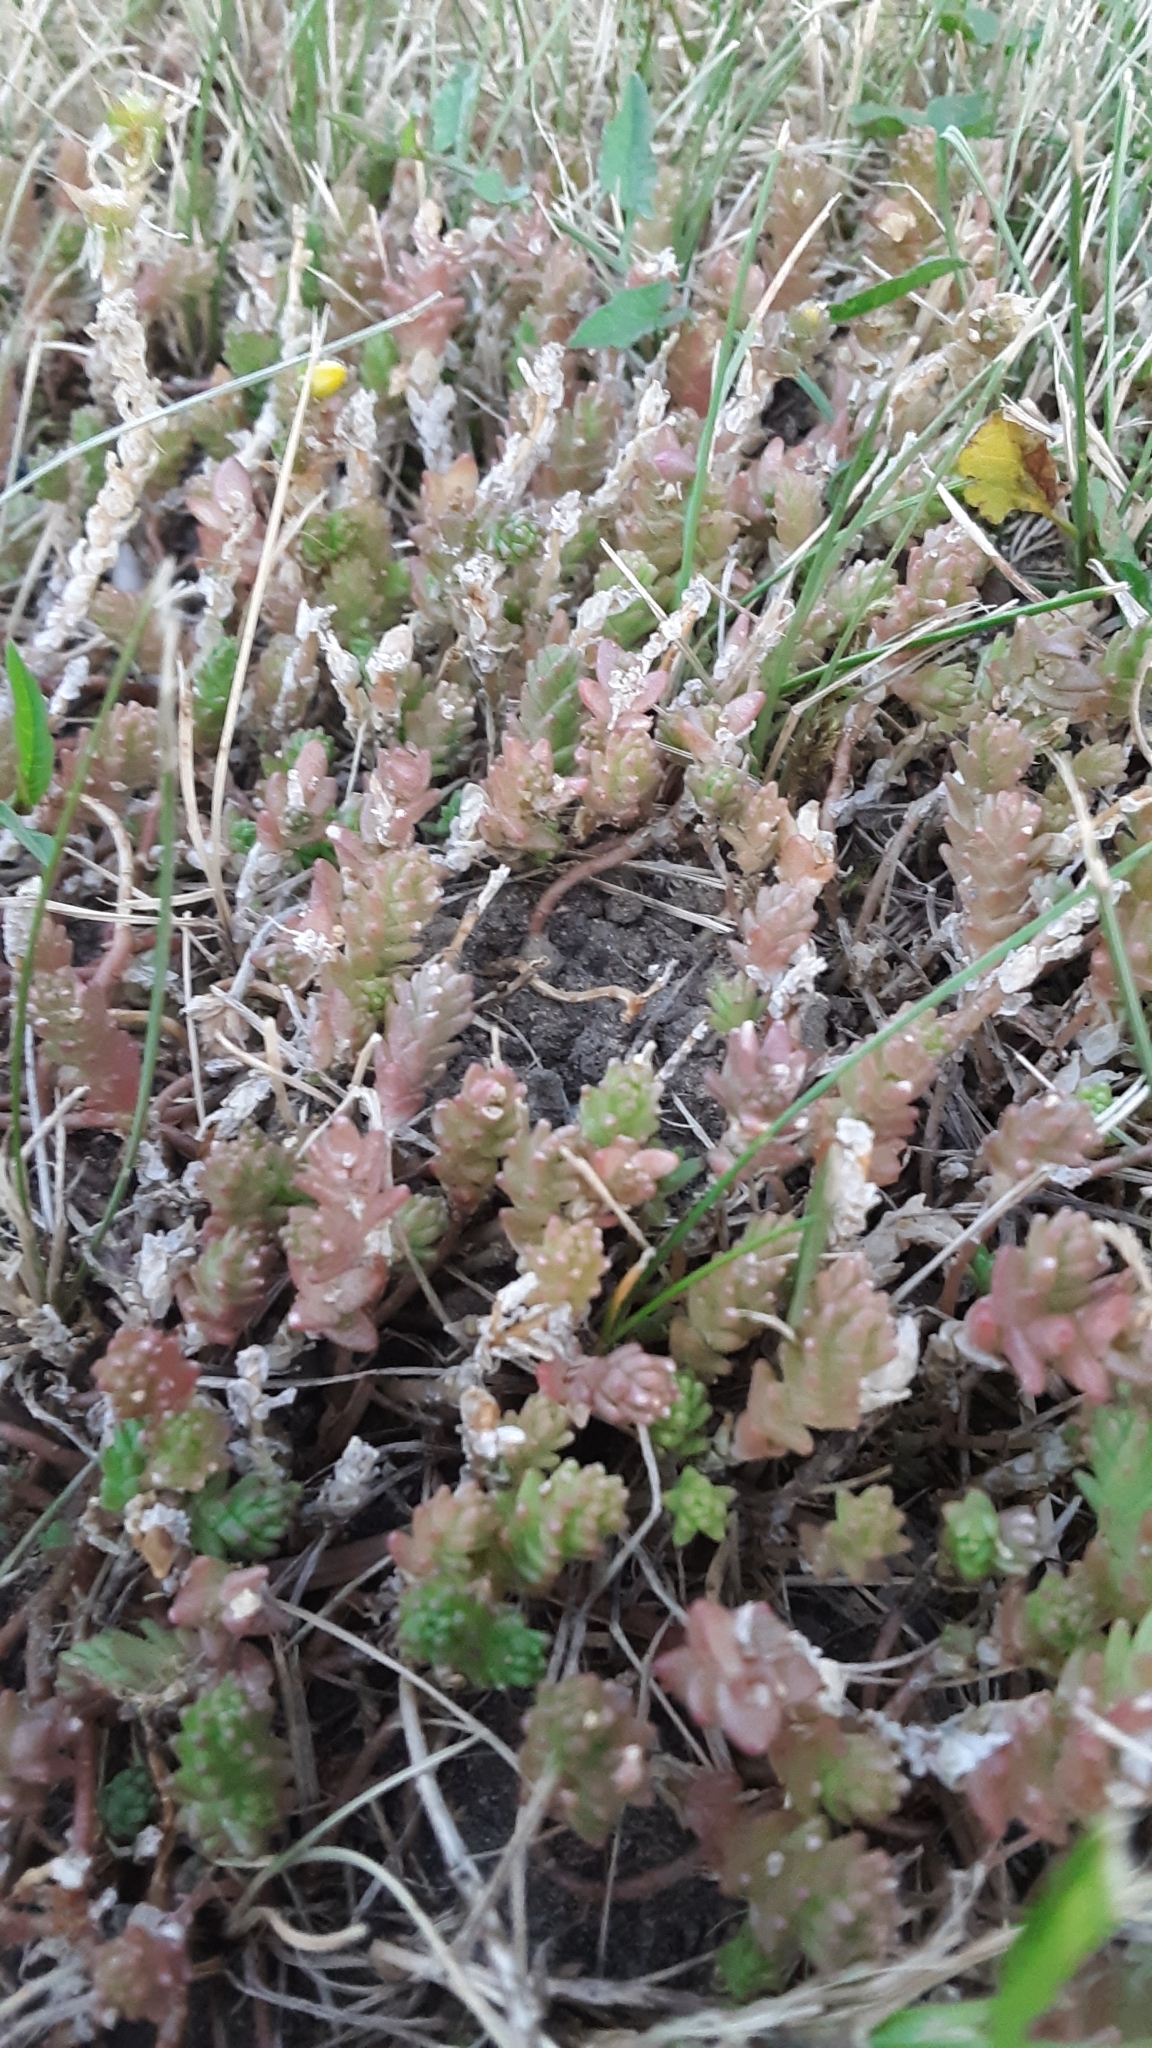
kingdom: Plantae
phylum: Tracheophyta
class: Magnoliopsida
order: Saxifragales
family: Crassulaceae
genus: Sedum
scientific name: Sedum acre
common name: Biting stonecrop
